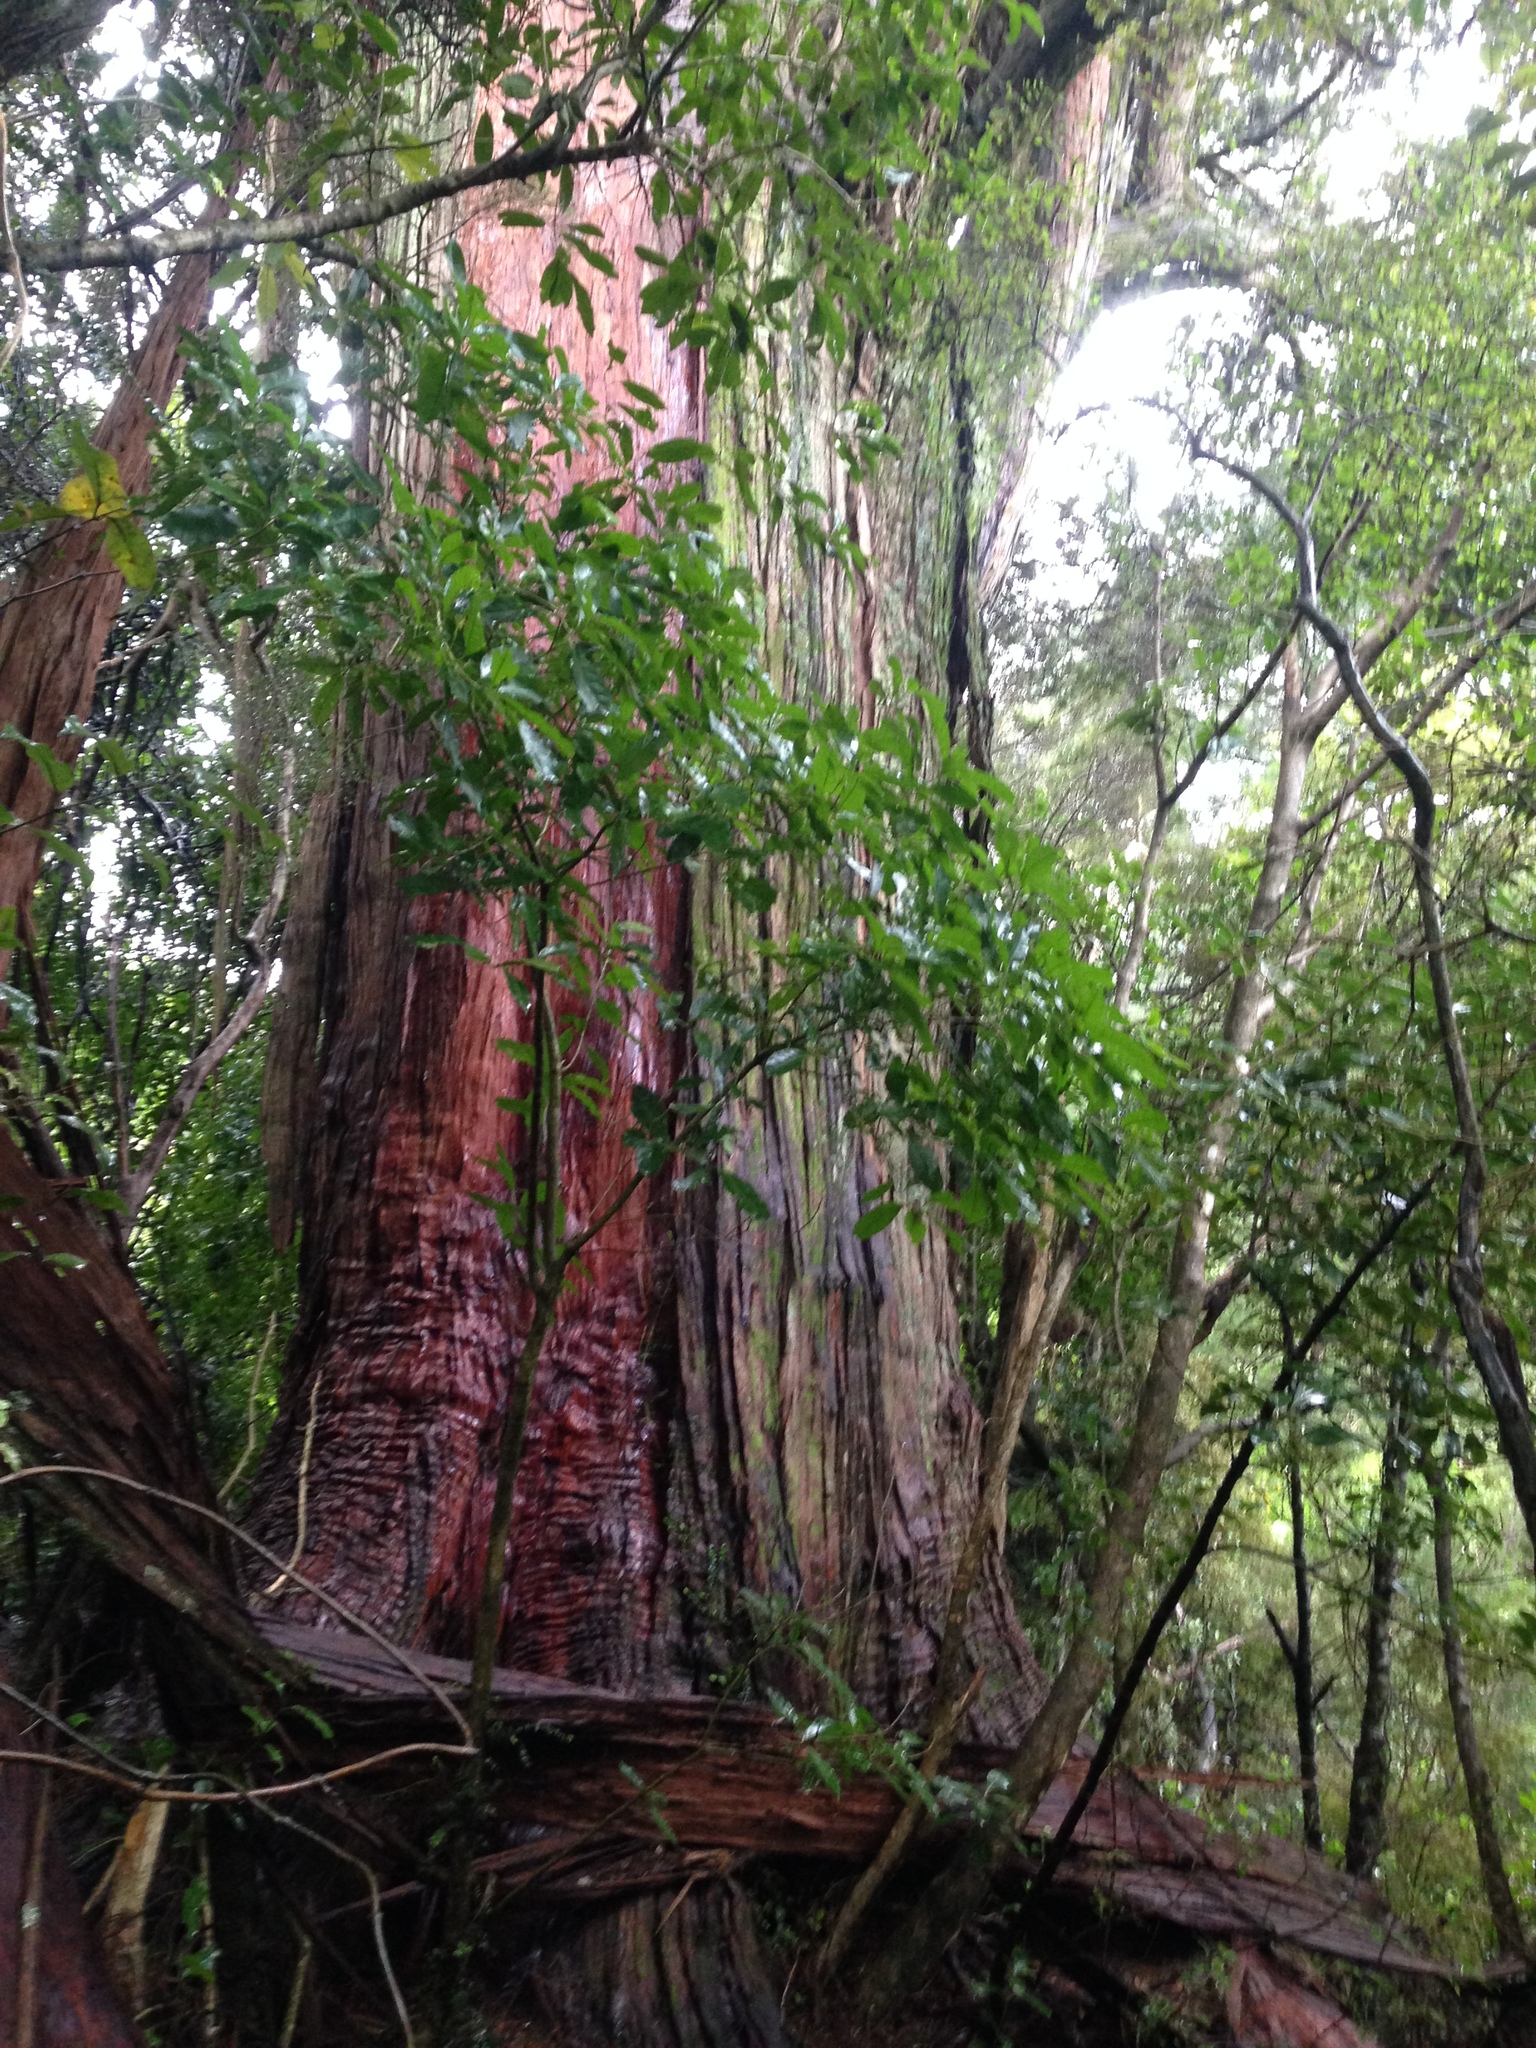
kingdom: Plantae
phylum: Tracheophyta
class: Pinopsida
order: Pinales
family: Podocarpaceae
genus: Podocarpus
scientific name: Podocarpus totara
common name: Totara
